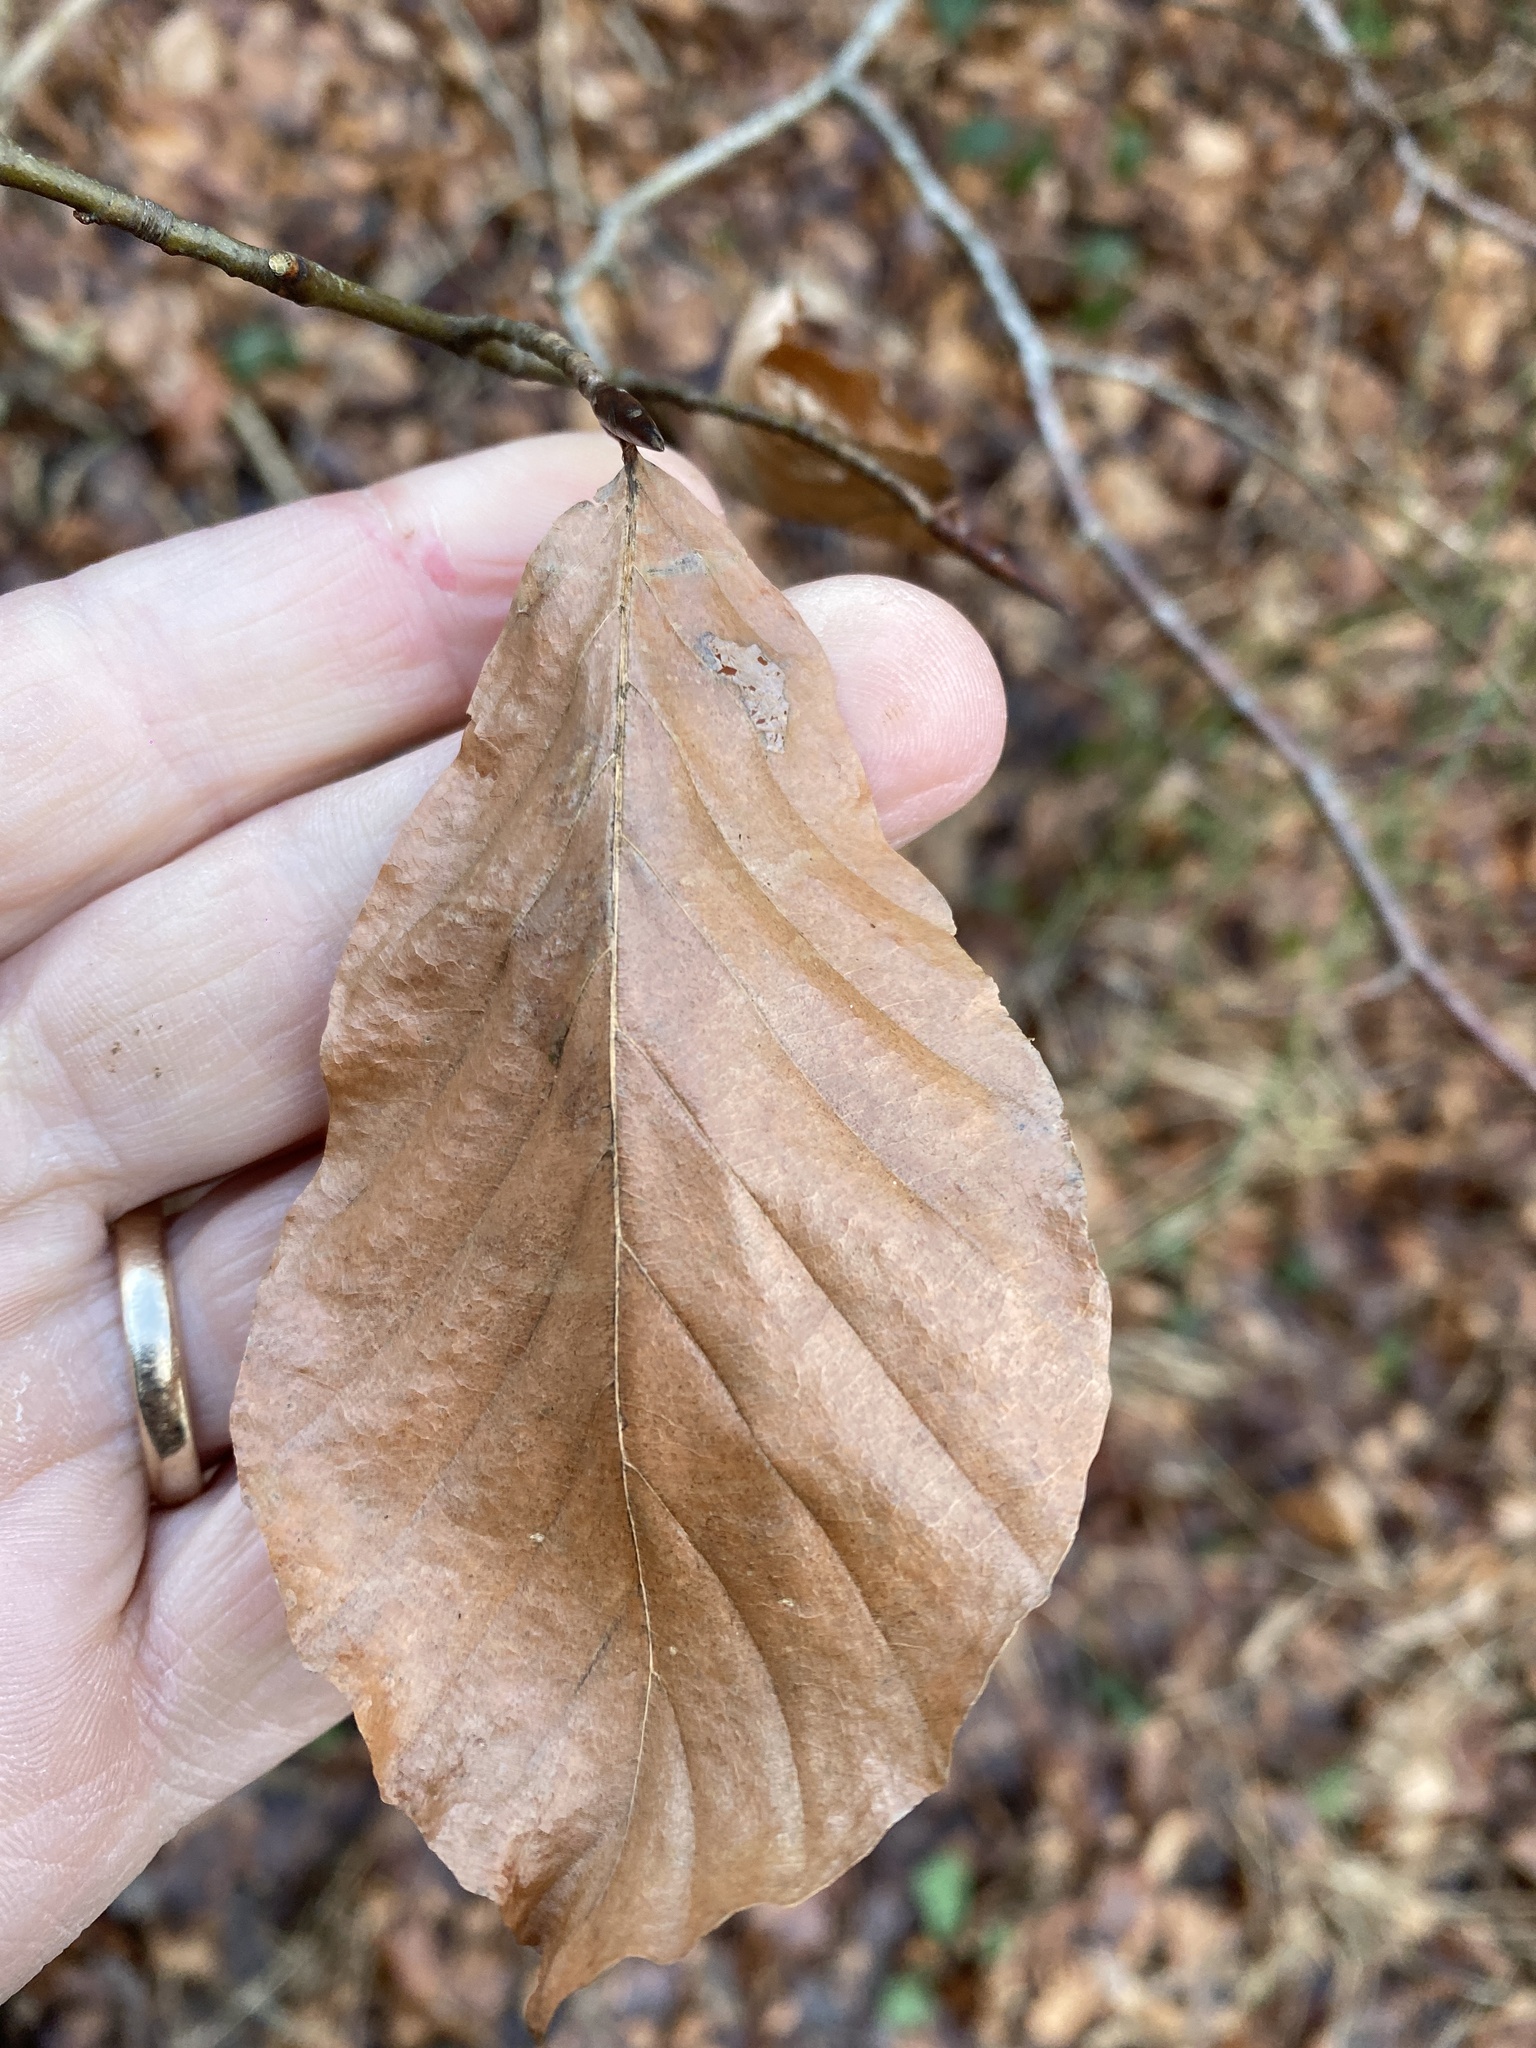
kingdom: Plantae
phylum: Tracheophyta
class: Magnoliopsida
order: Fagales
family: Fagaceae
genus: Fagus
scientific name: Fagus sylvatica
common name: Beech
